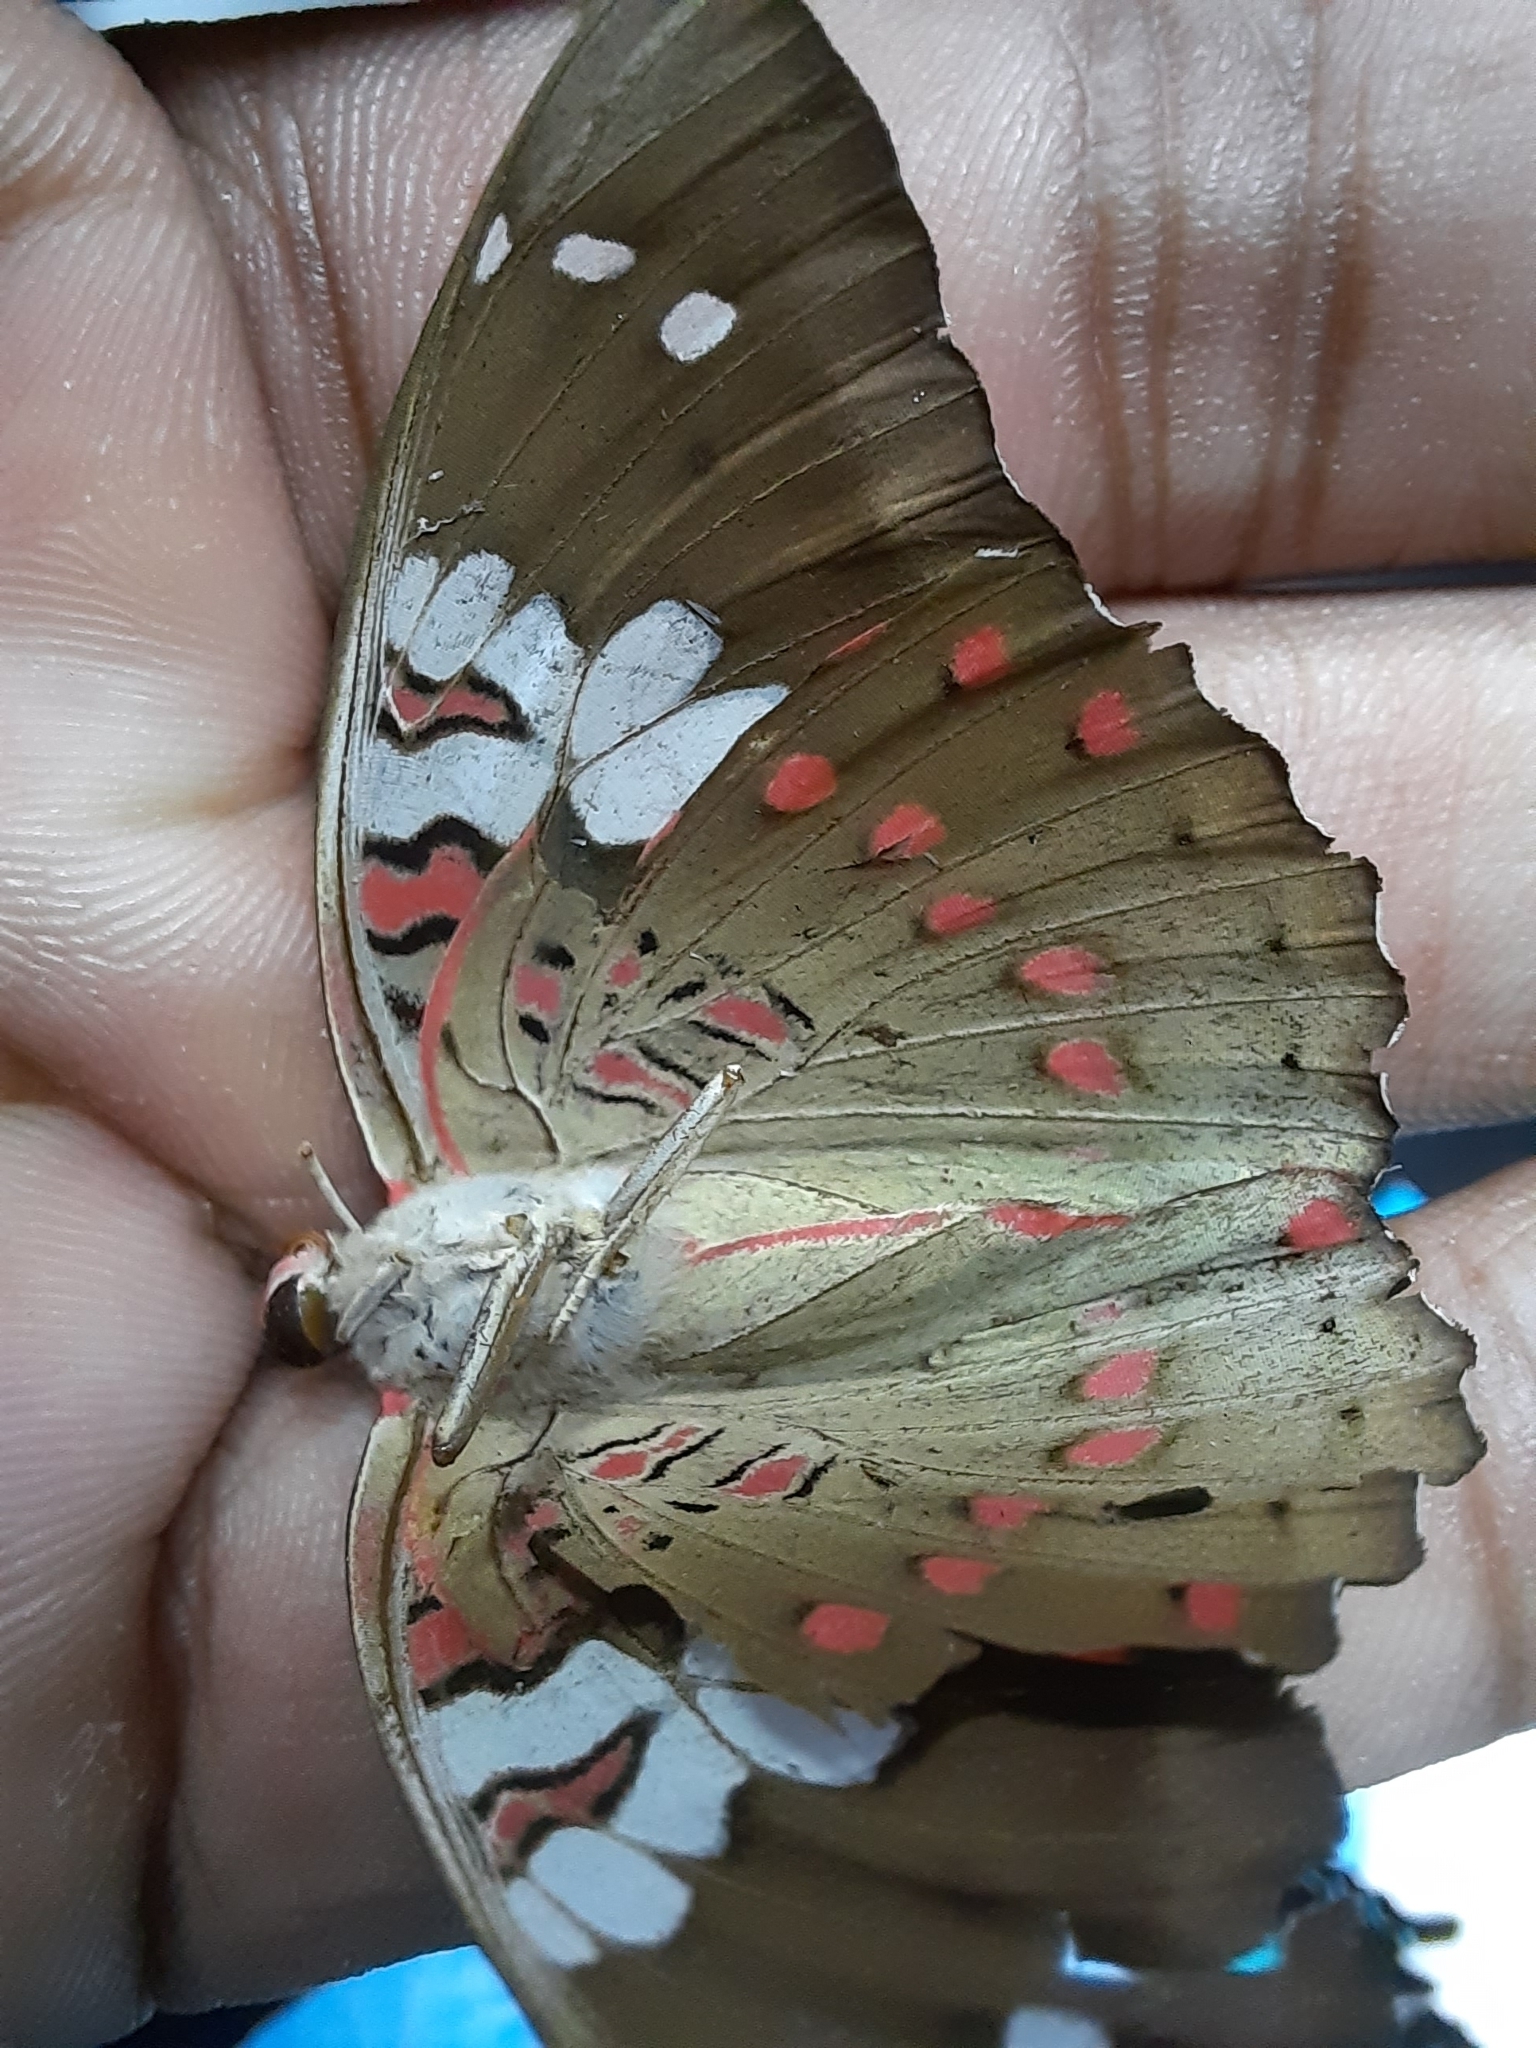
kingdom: Animalia
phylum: Arthropoda
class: Insecta
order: Lepidoptera
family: Nymphalidae
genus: Euthalia
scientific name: Euthalia lubentina
